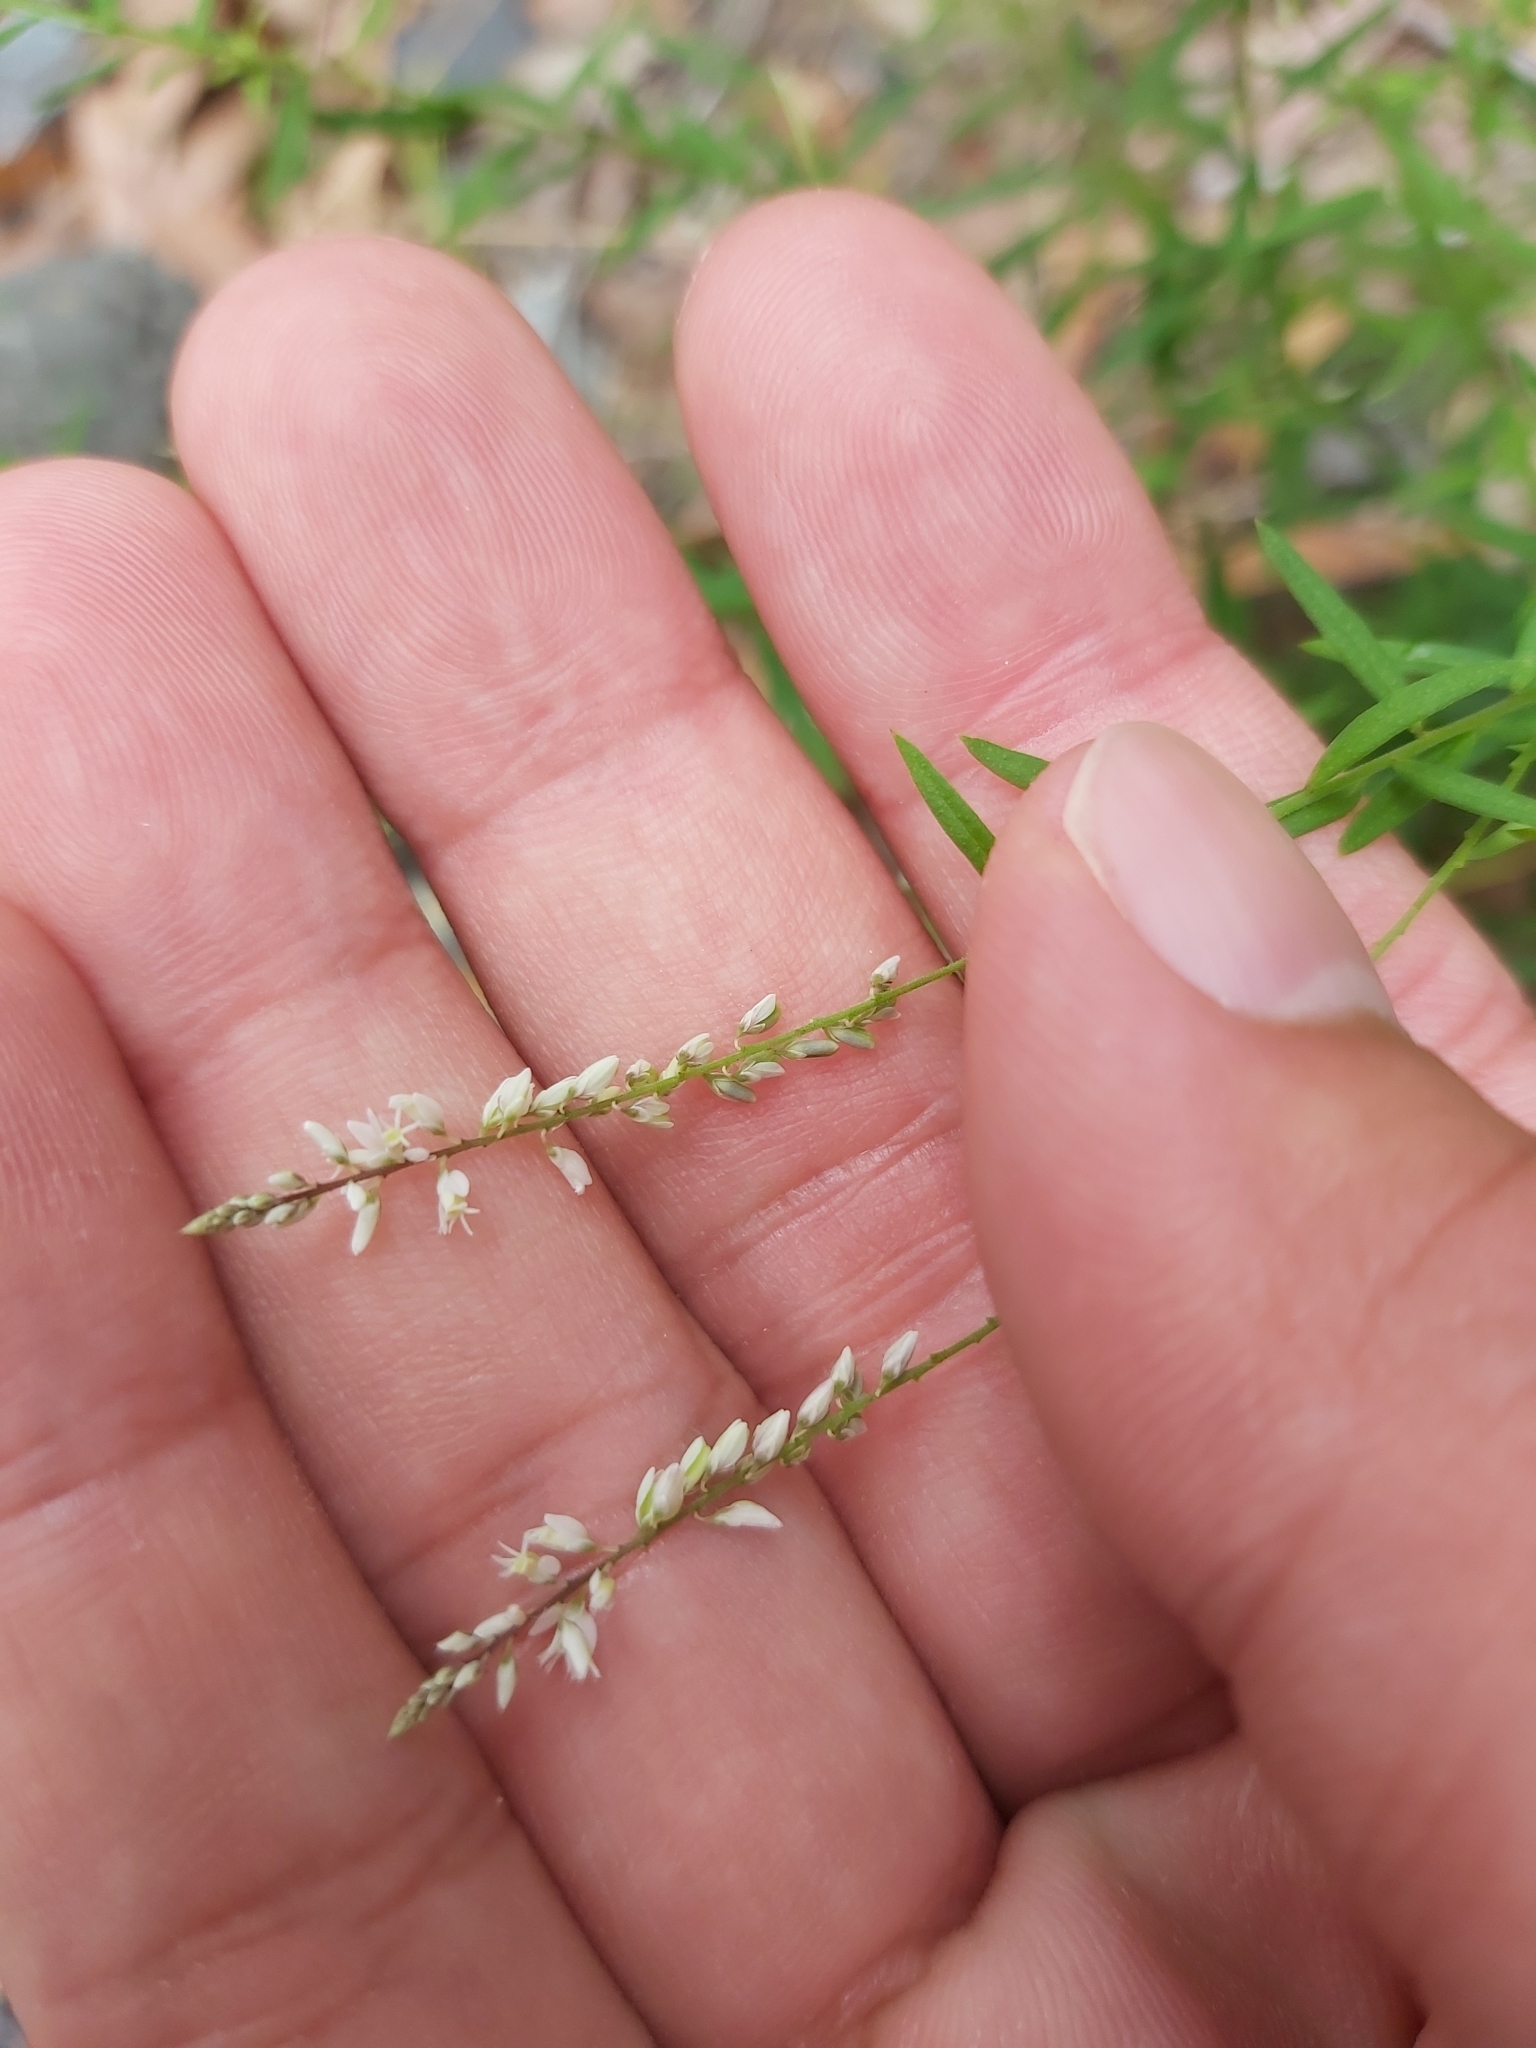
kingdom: Plantae
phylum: Tracheophyta
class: Magnoliopsida
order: Fabales
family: Polygalaceae
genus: Polygala
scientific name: Polygala paniculata
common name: Orosne
